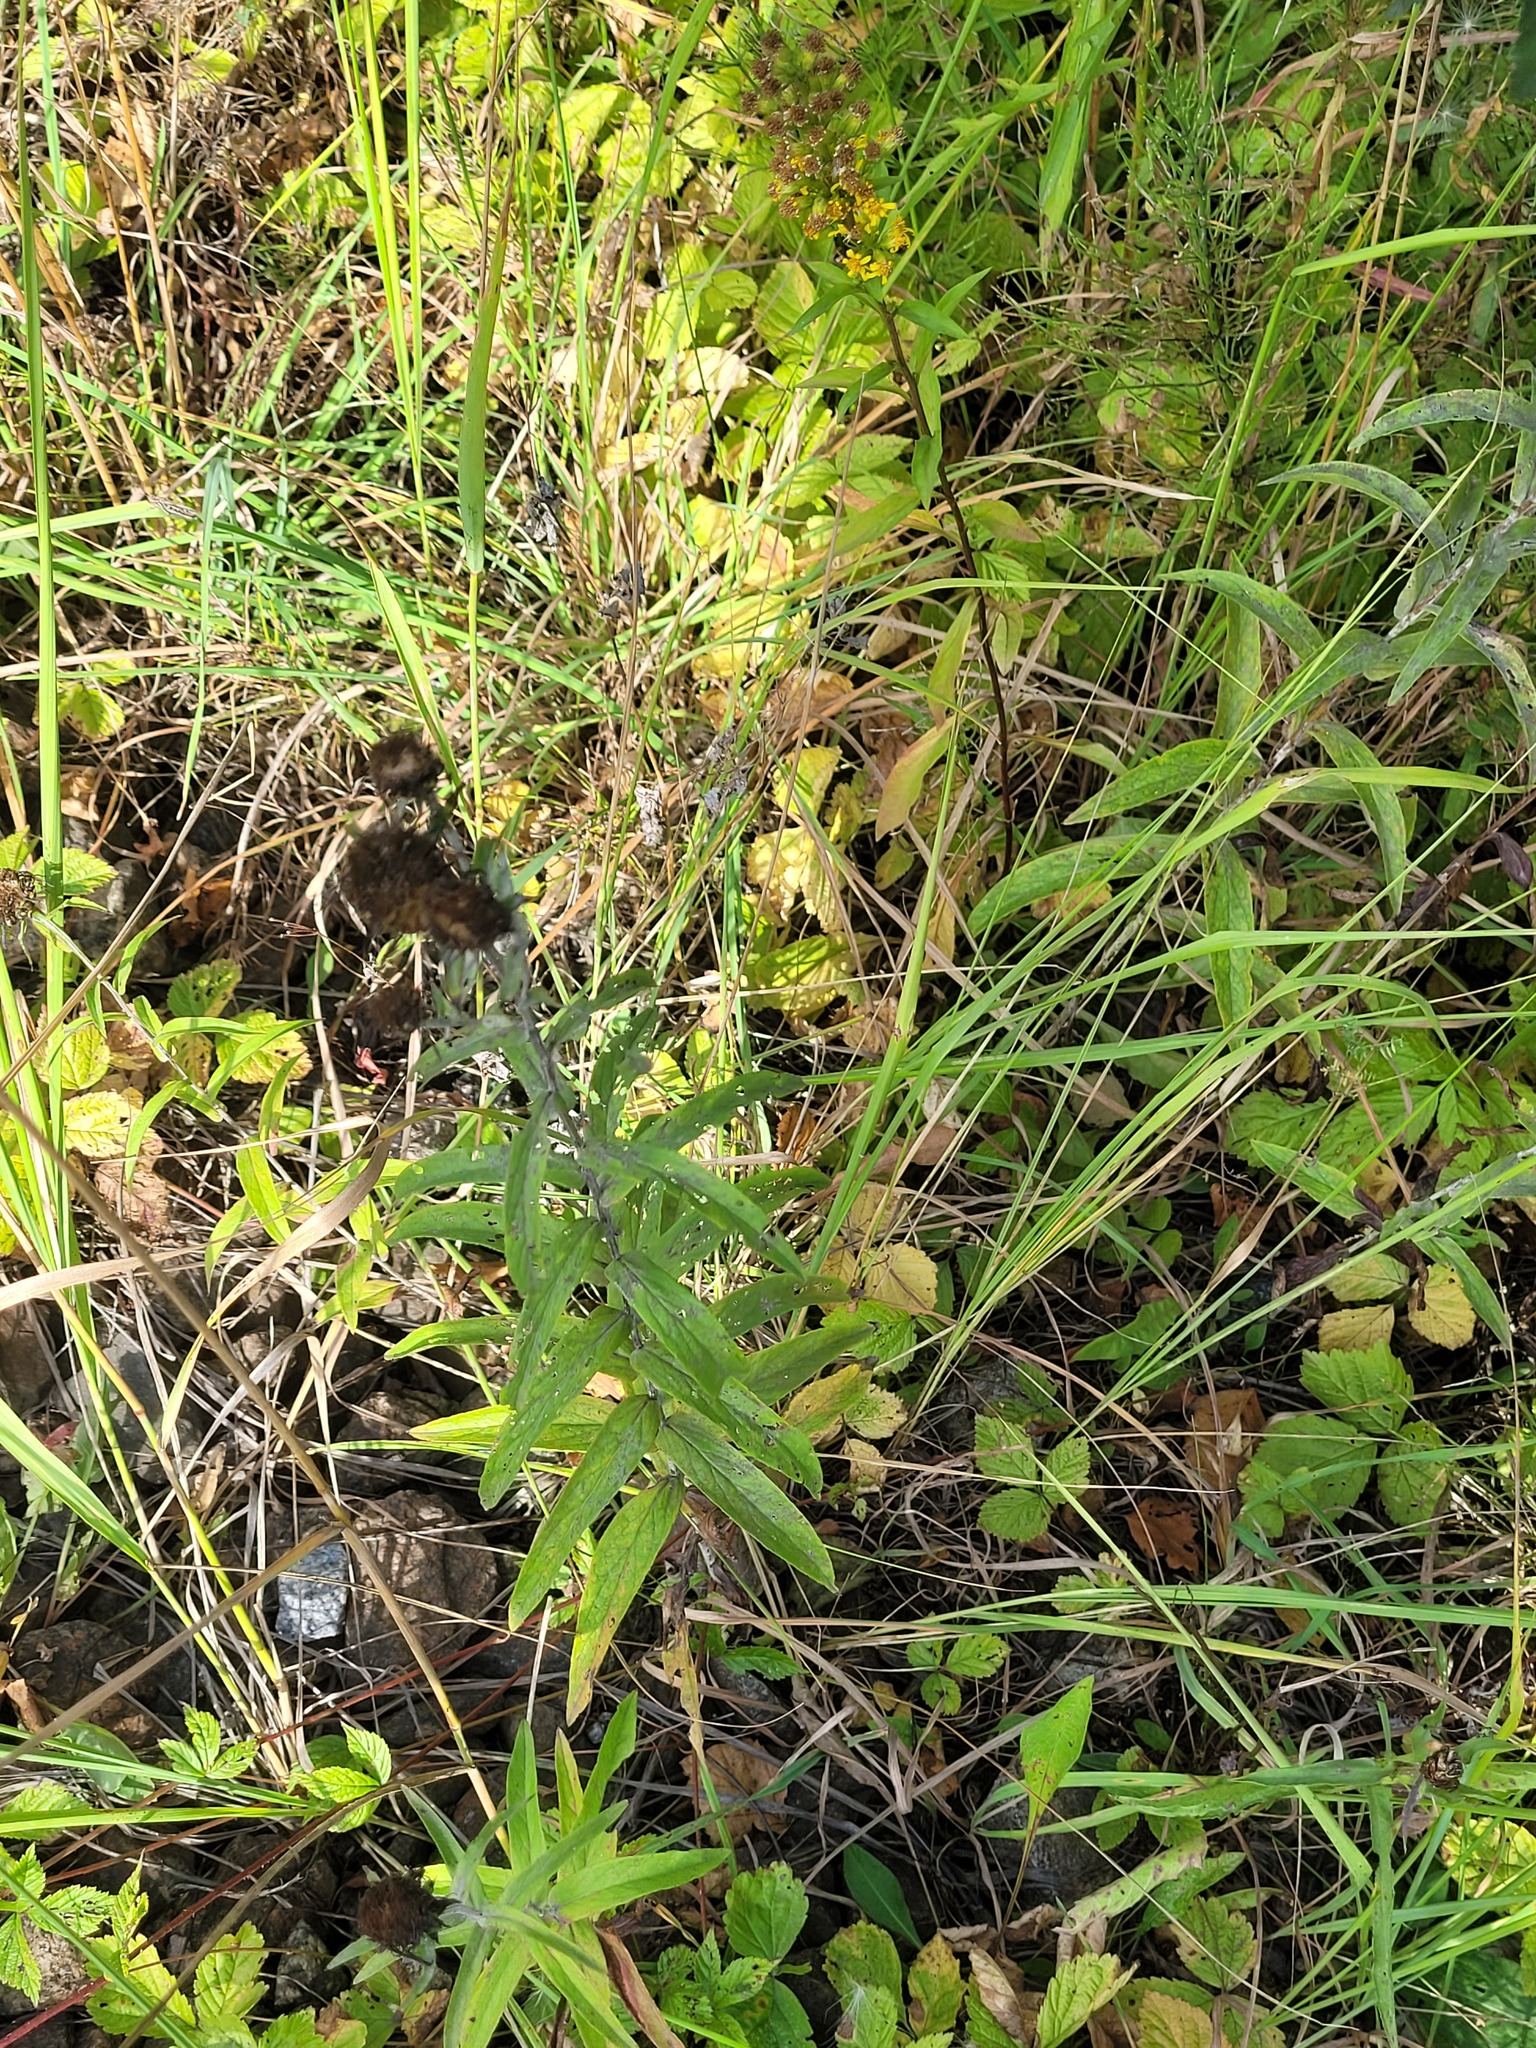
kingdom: Plantae
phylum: Tracheophyta
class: Magnoliopsida
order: Asterales
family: Asteraceae
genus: Pentanema
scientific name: Pentanema salicinum
